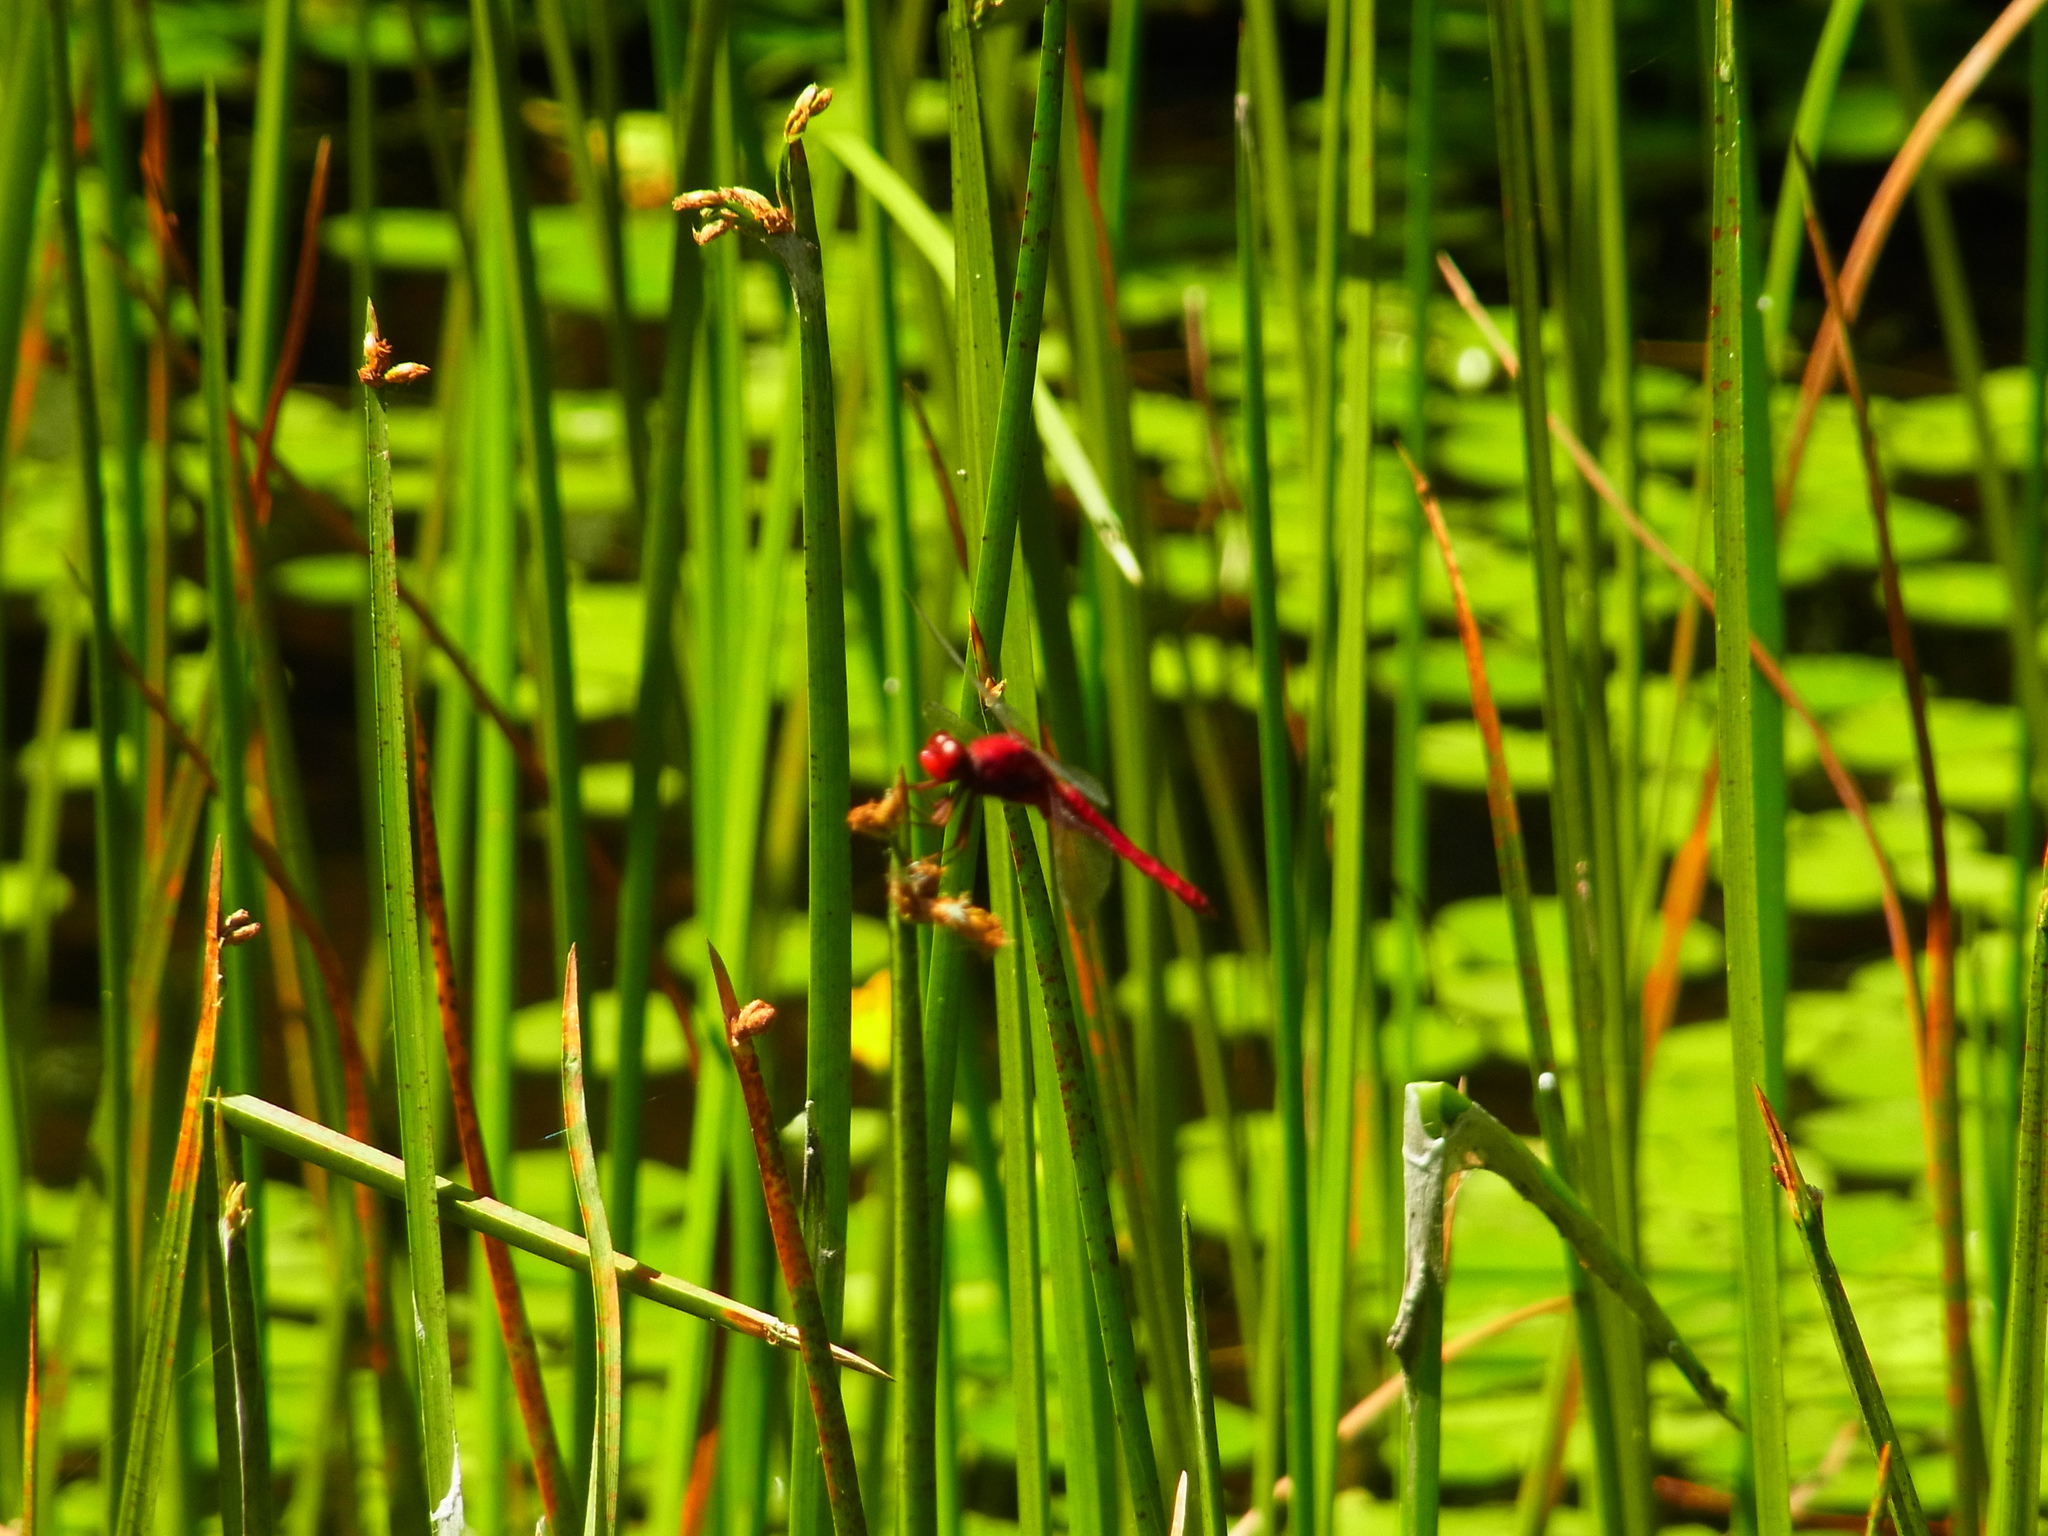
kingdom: Animalia
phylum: Arthropoda
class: Insecta
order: Odonata
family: Libellulidae
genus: Crocothemis
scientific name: Crocothemis servilia
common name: Scarlet skimmer
